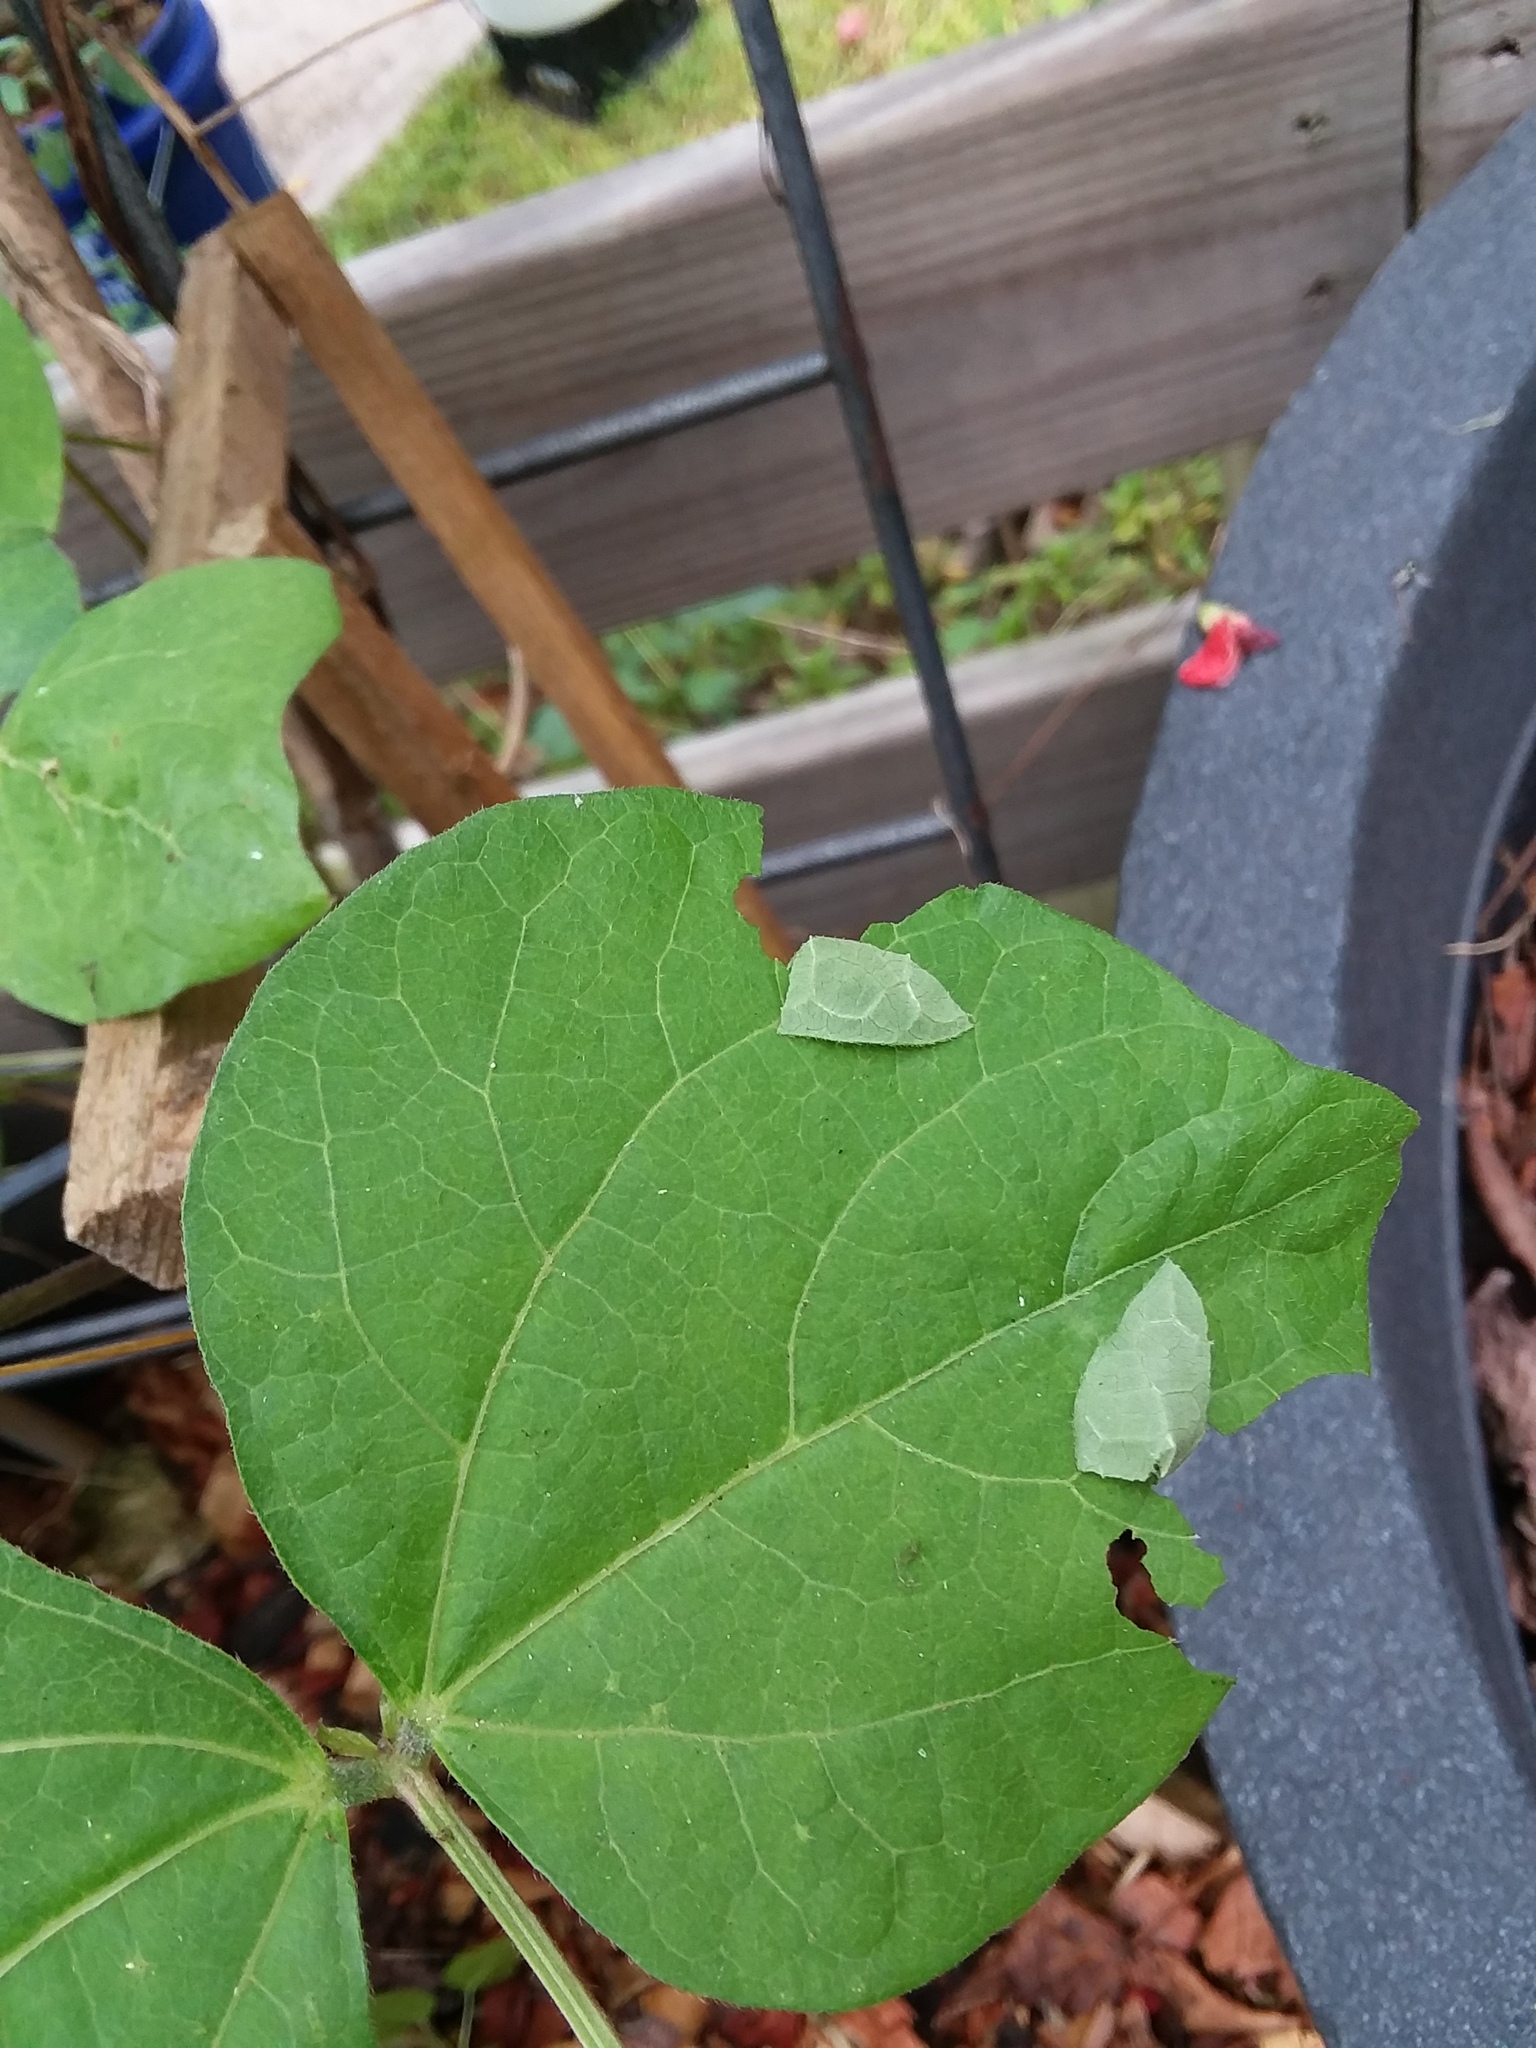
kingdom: Animalia
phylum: Arthropoda
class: Insecta
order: Lepidoptera
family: Hesperiidae
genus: Urbanus
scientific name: Urbanus proteus
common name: Long-tailed skipper
